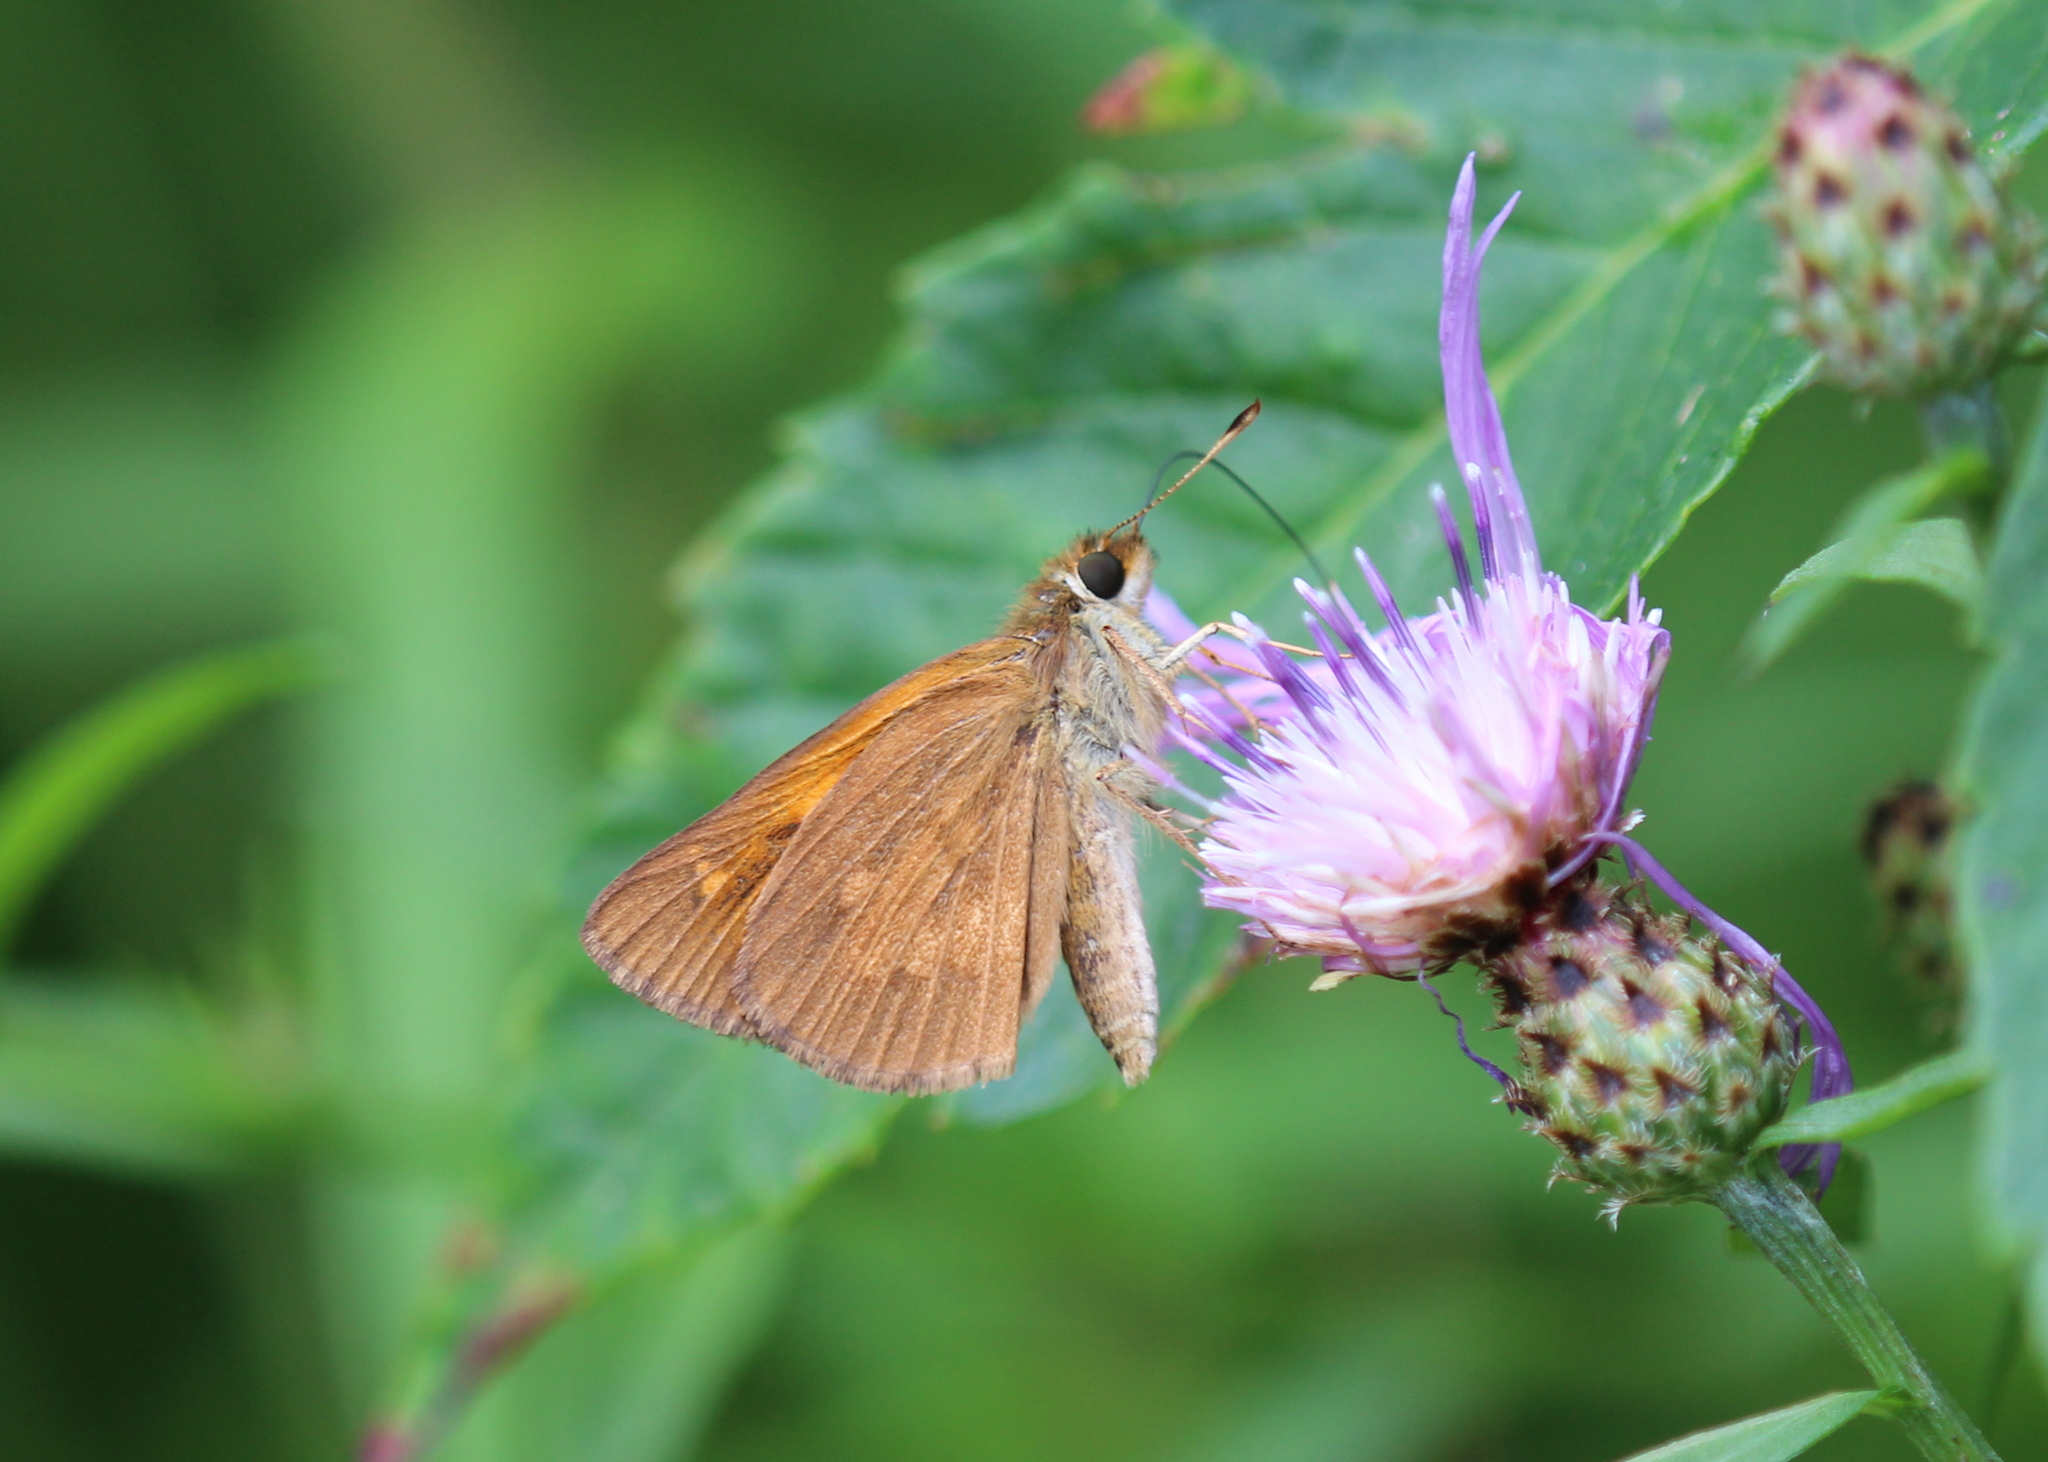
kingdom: Animalia
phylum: Arthropoda
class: Insecta
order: Lepidoptera
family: Hesperiidae
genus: Poanes
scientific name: Poanes viator
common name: Broad-winged skipper
